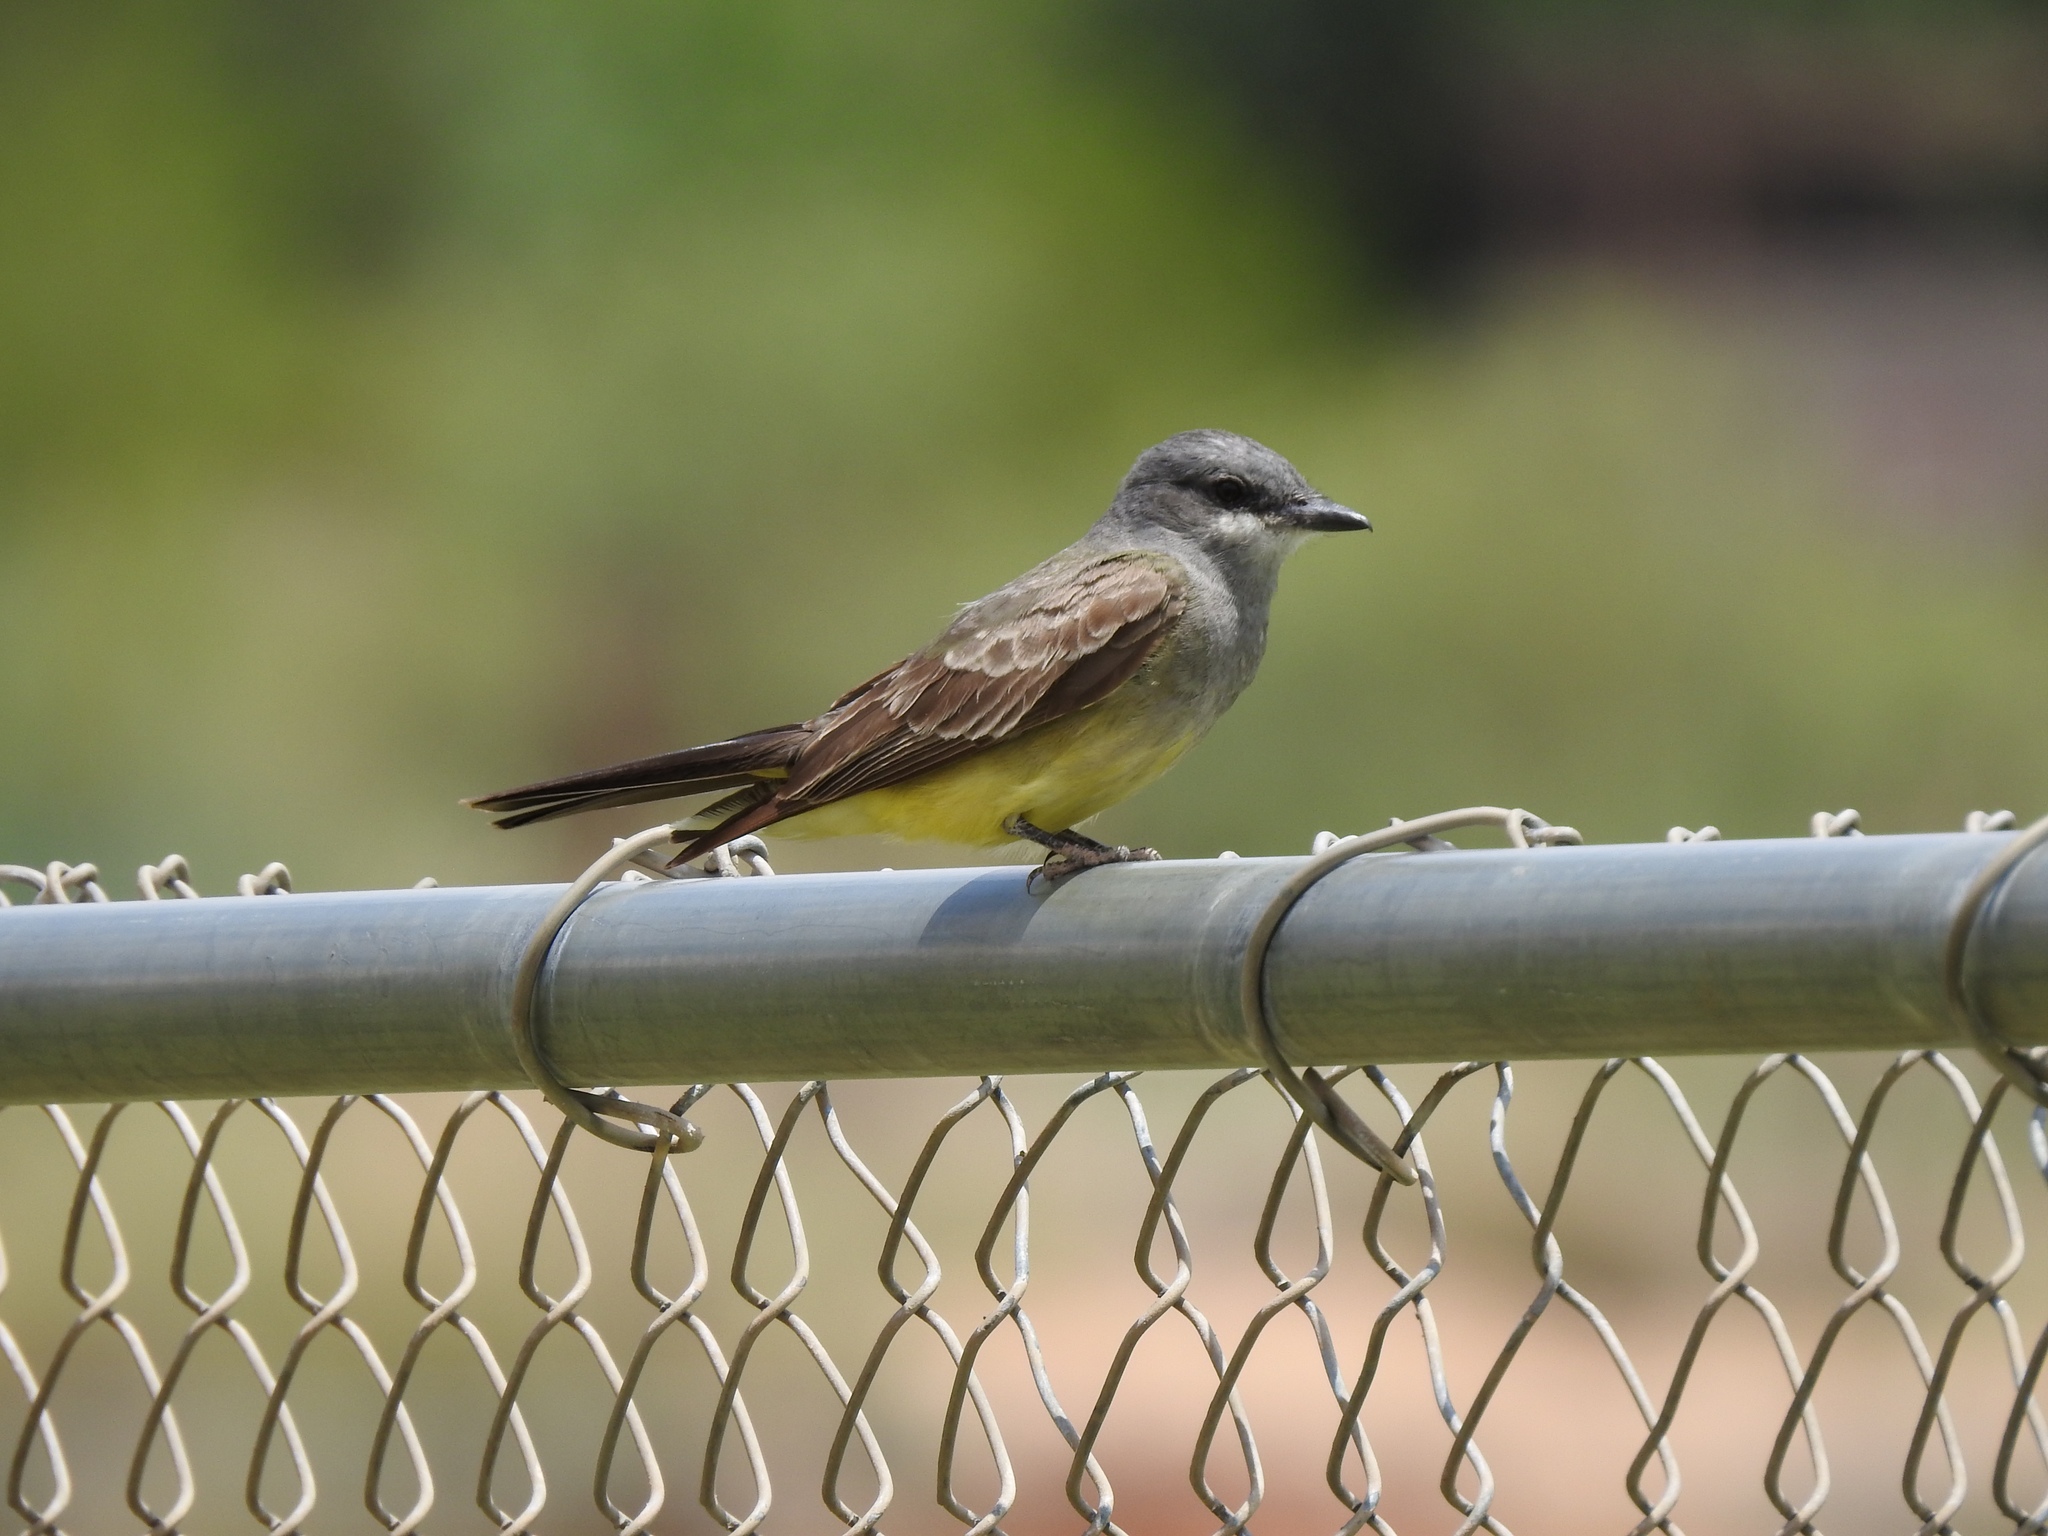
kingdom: Animalia
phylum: Chordata
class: Aves
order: Passeriformes
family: Tyrannidae
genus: Tyrannus
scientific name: Tyrannus vociferans
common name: Cassin's kingbird
